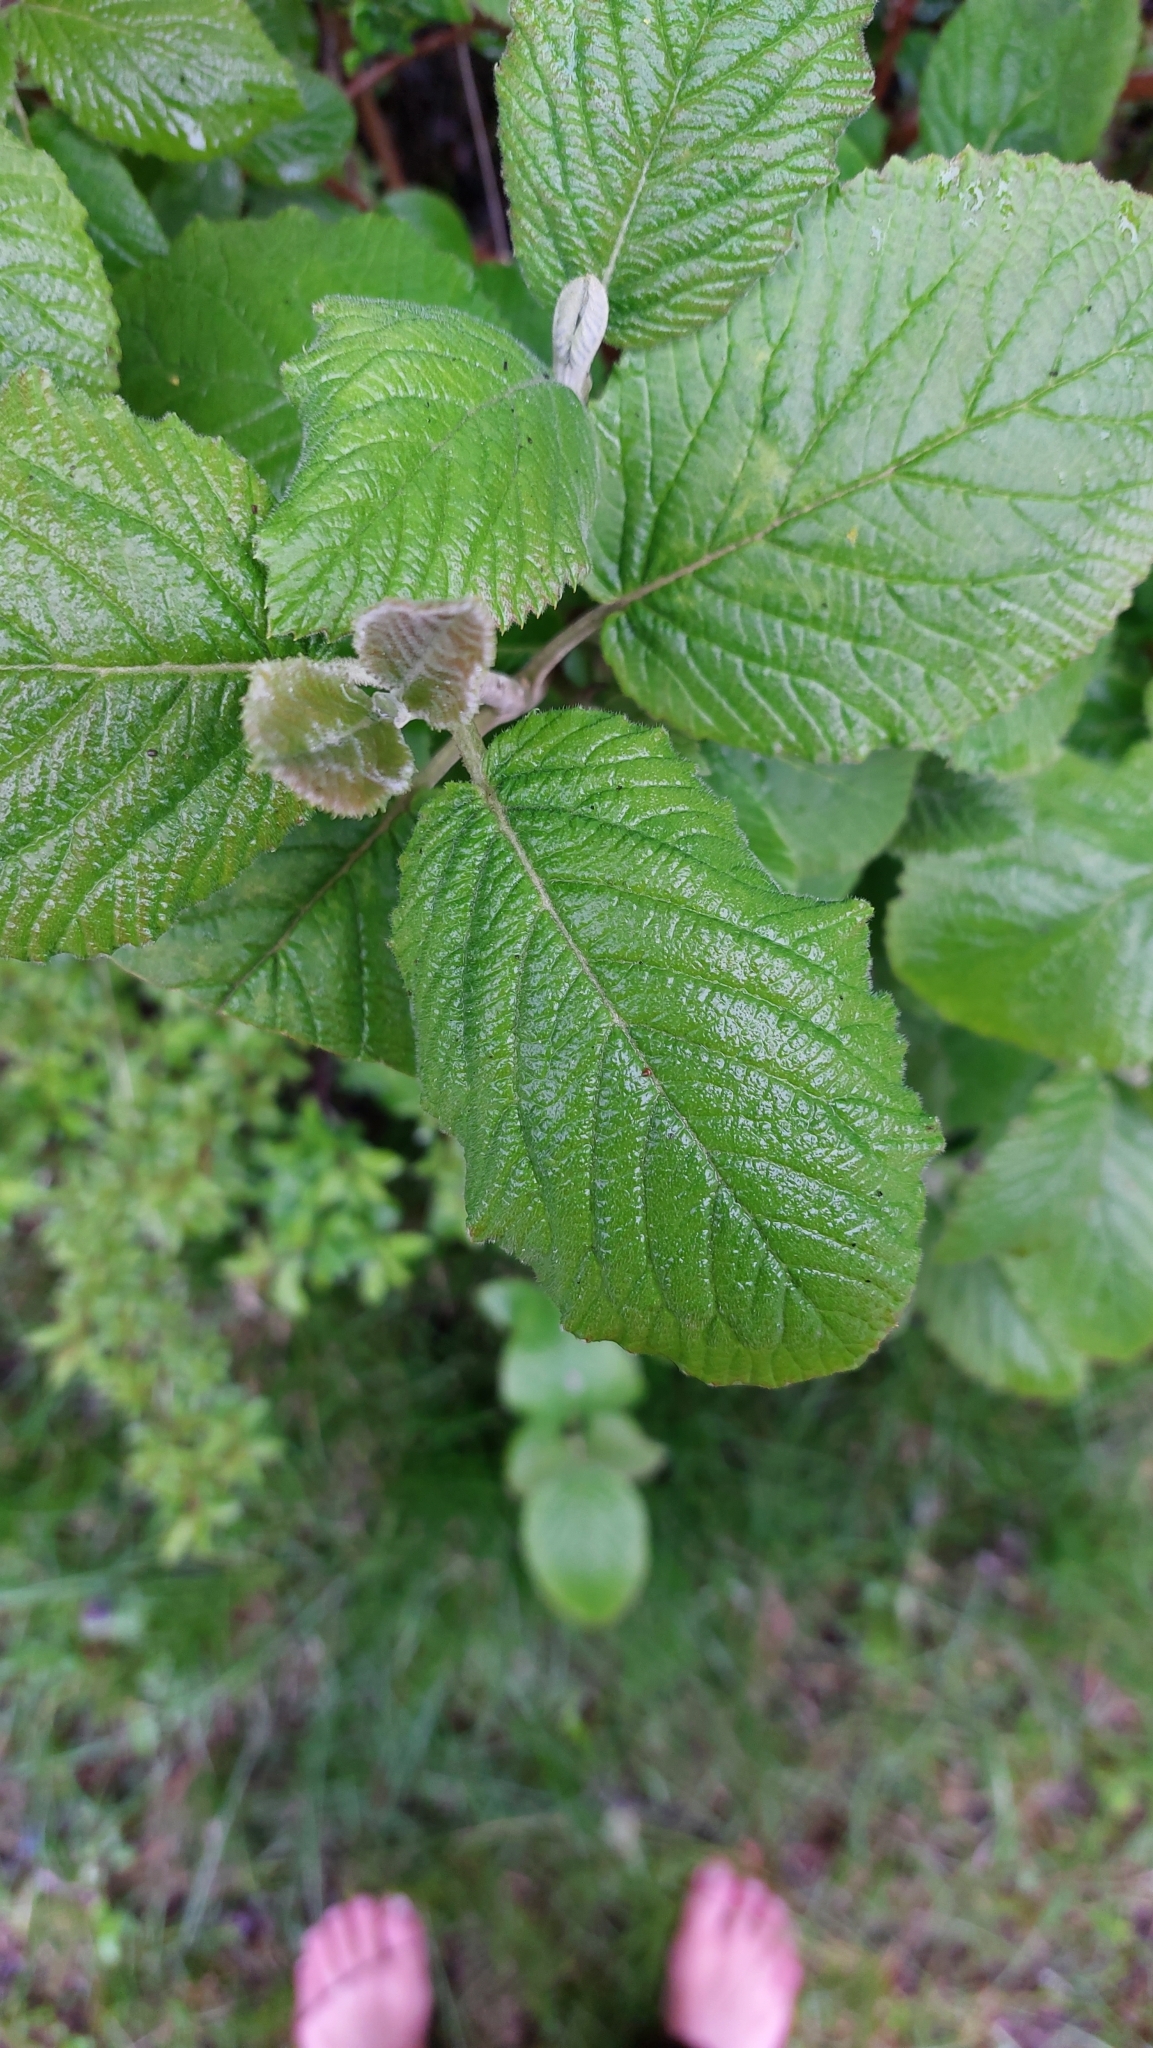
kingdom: Plantae
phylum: Tracheophyta
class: Magnoliopsida
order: Dipsacales
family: Viburnaceae
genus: Viburnum
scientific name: Viburnum lantana
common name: Wayfaring tree
